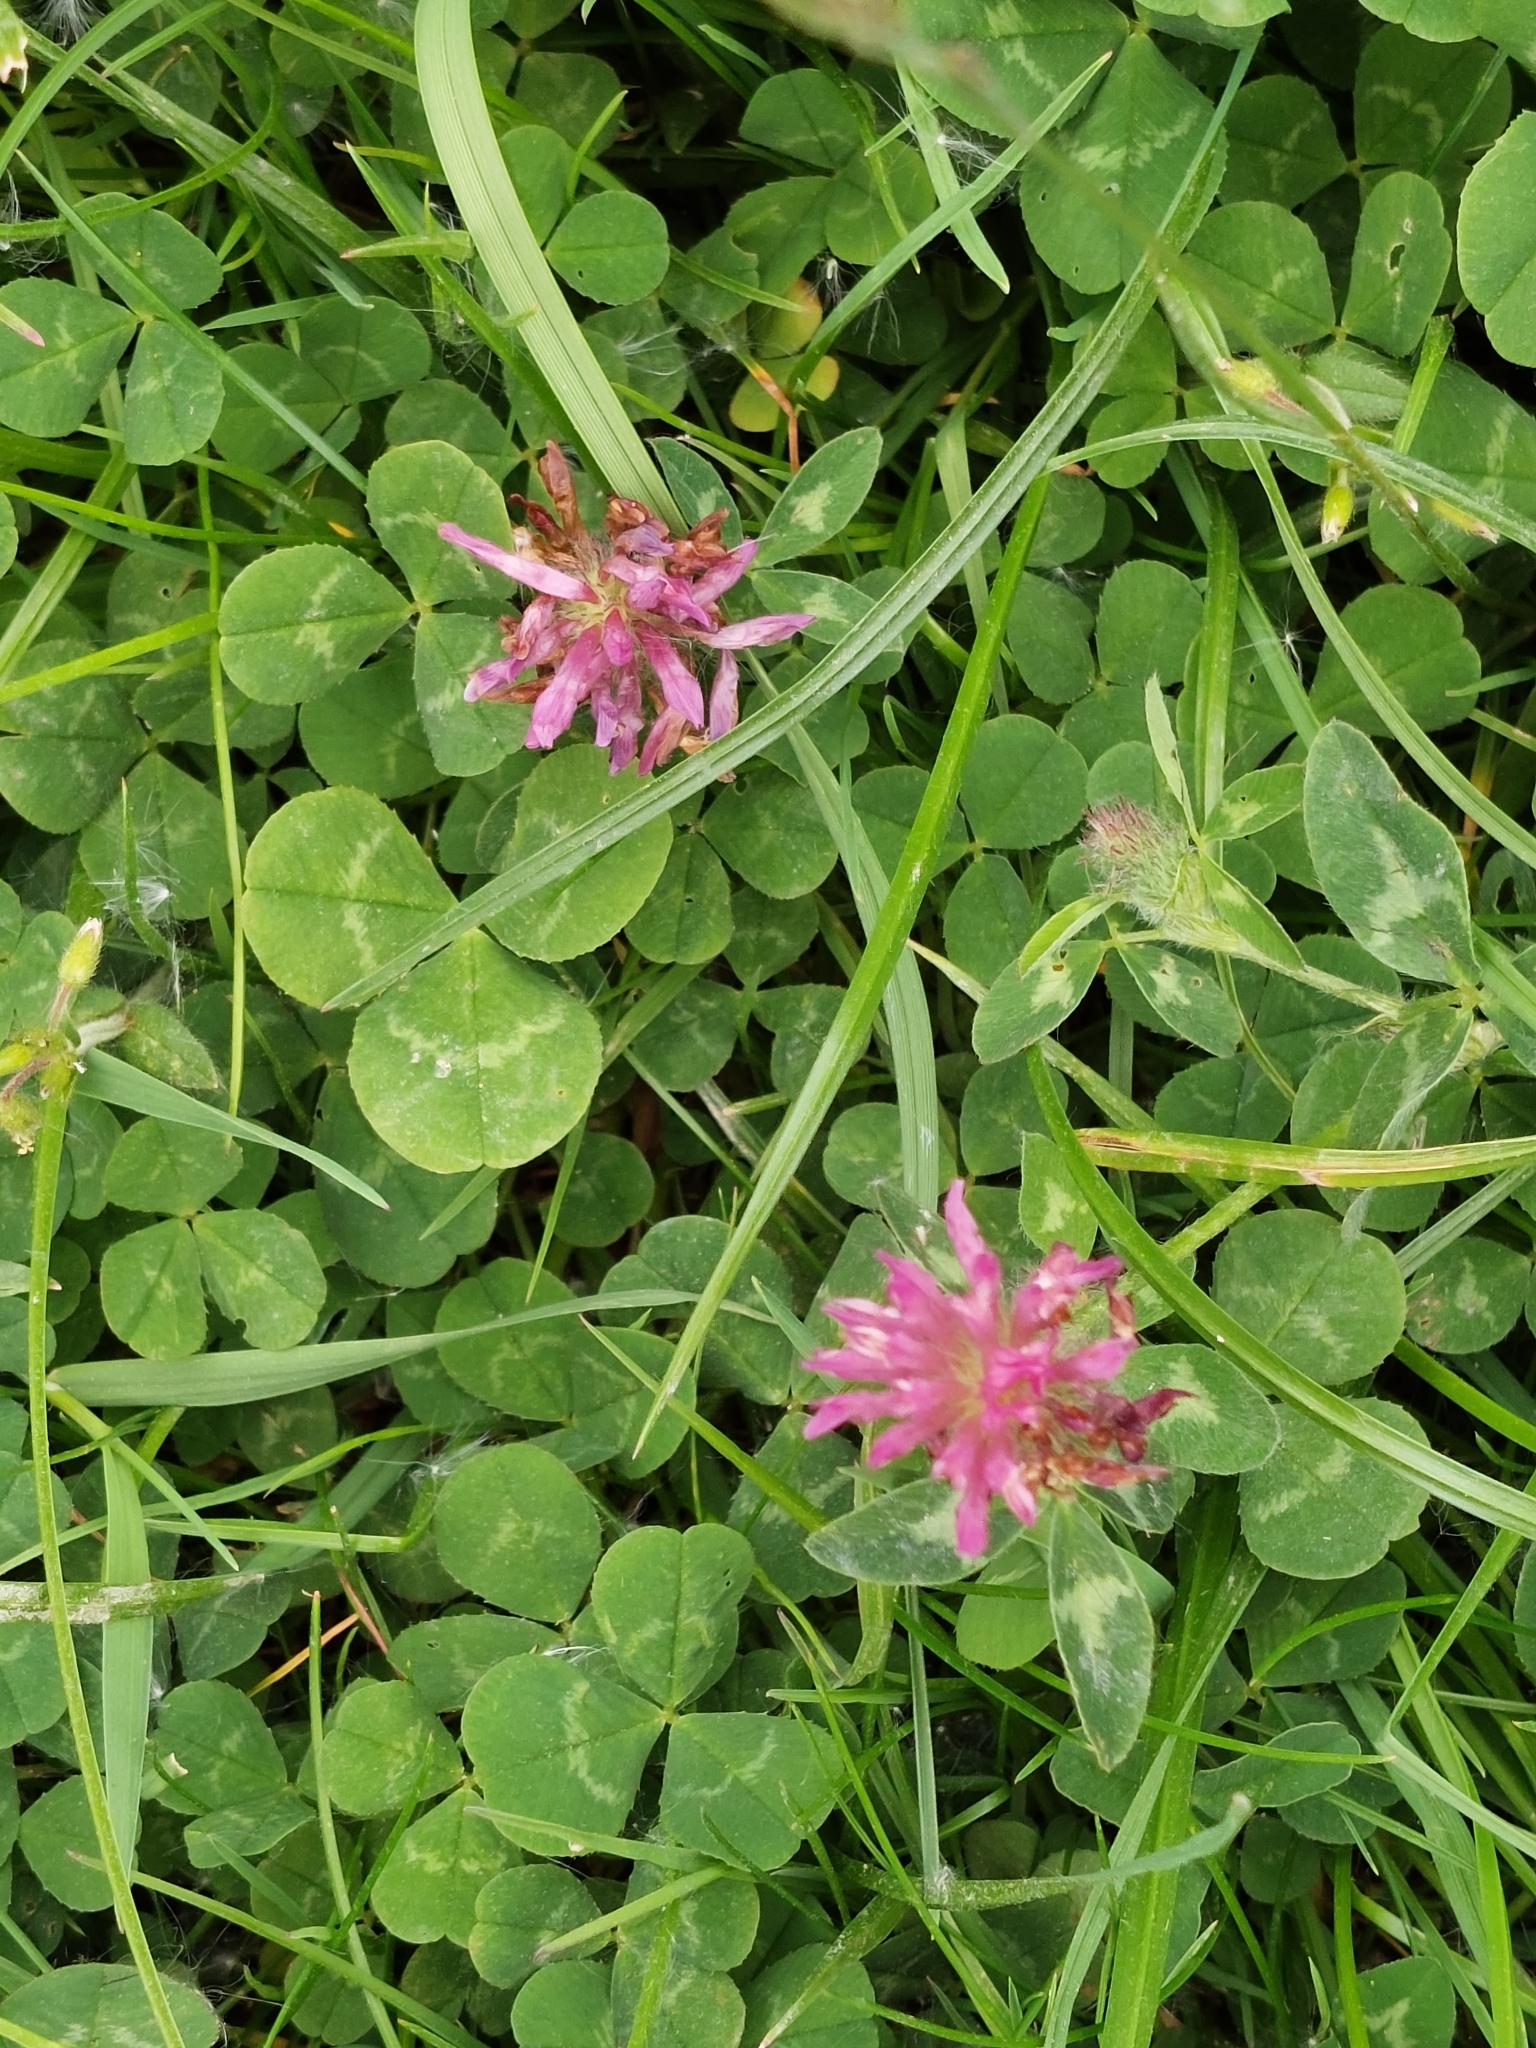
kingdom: Plantae
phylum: Tracheophyta
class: Magnoliopsida
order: Fabales
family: Fabaceae
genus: Trifolium
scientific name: Trifolium pratense
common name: Red clover
